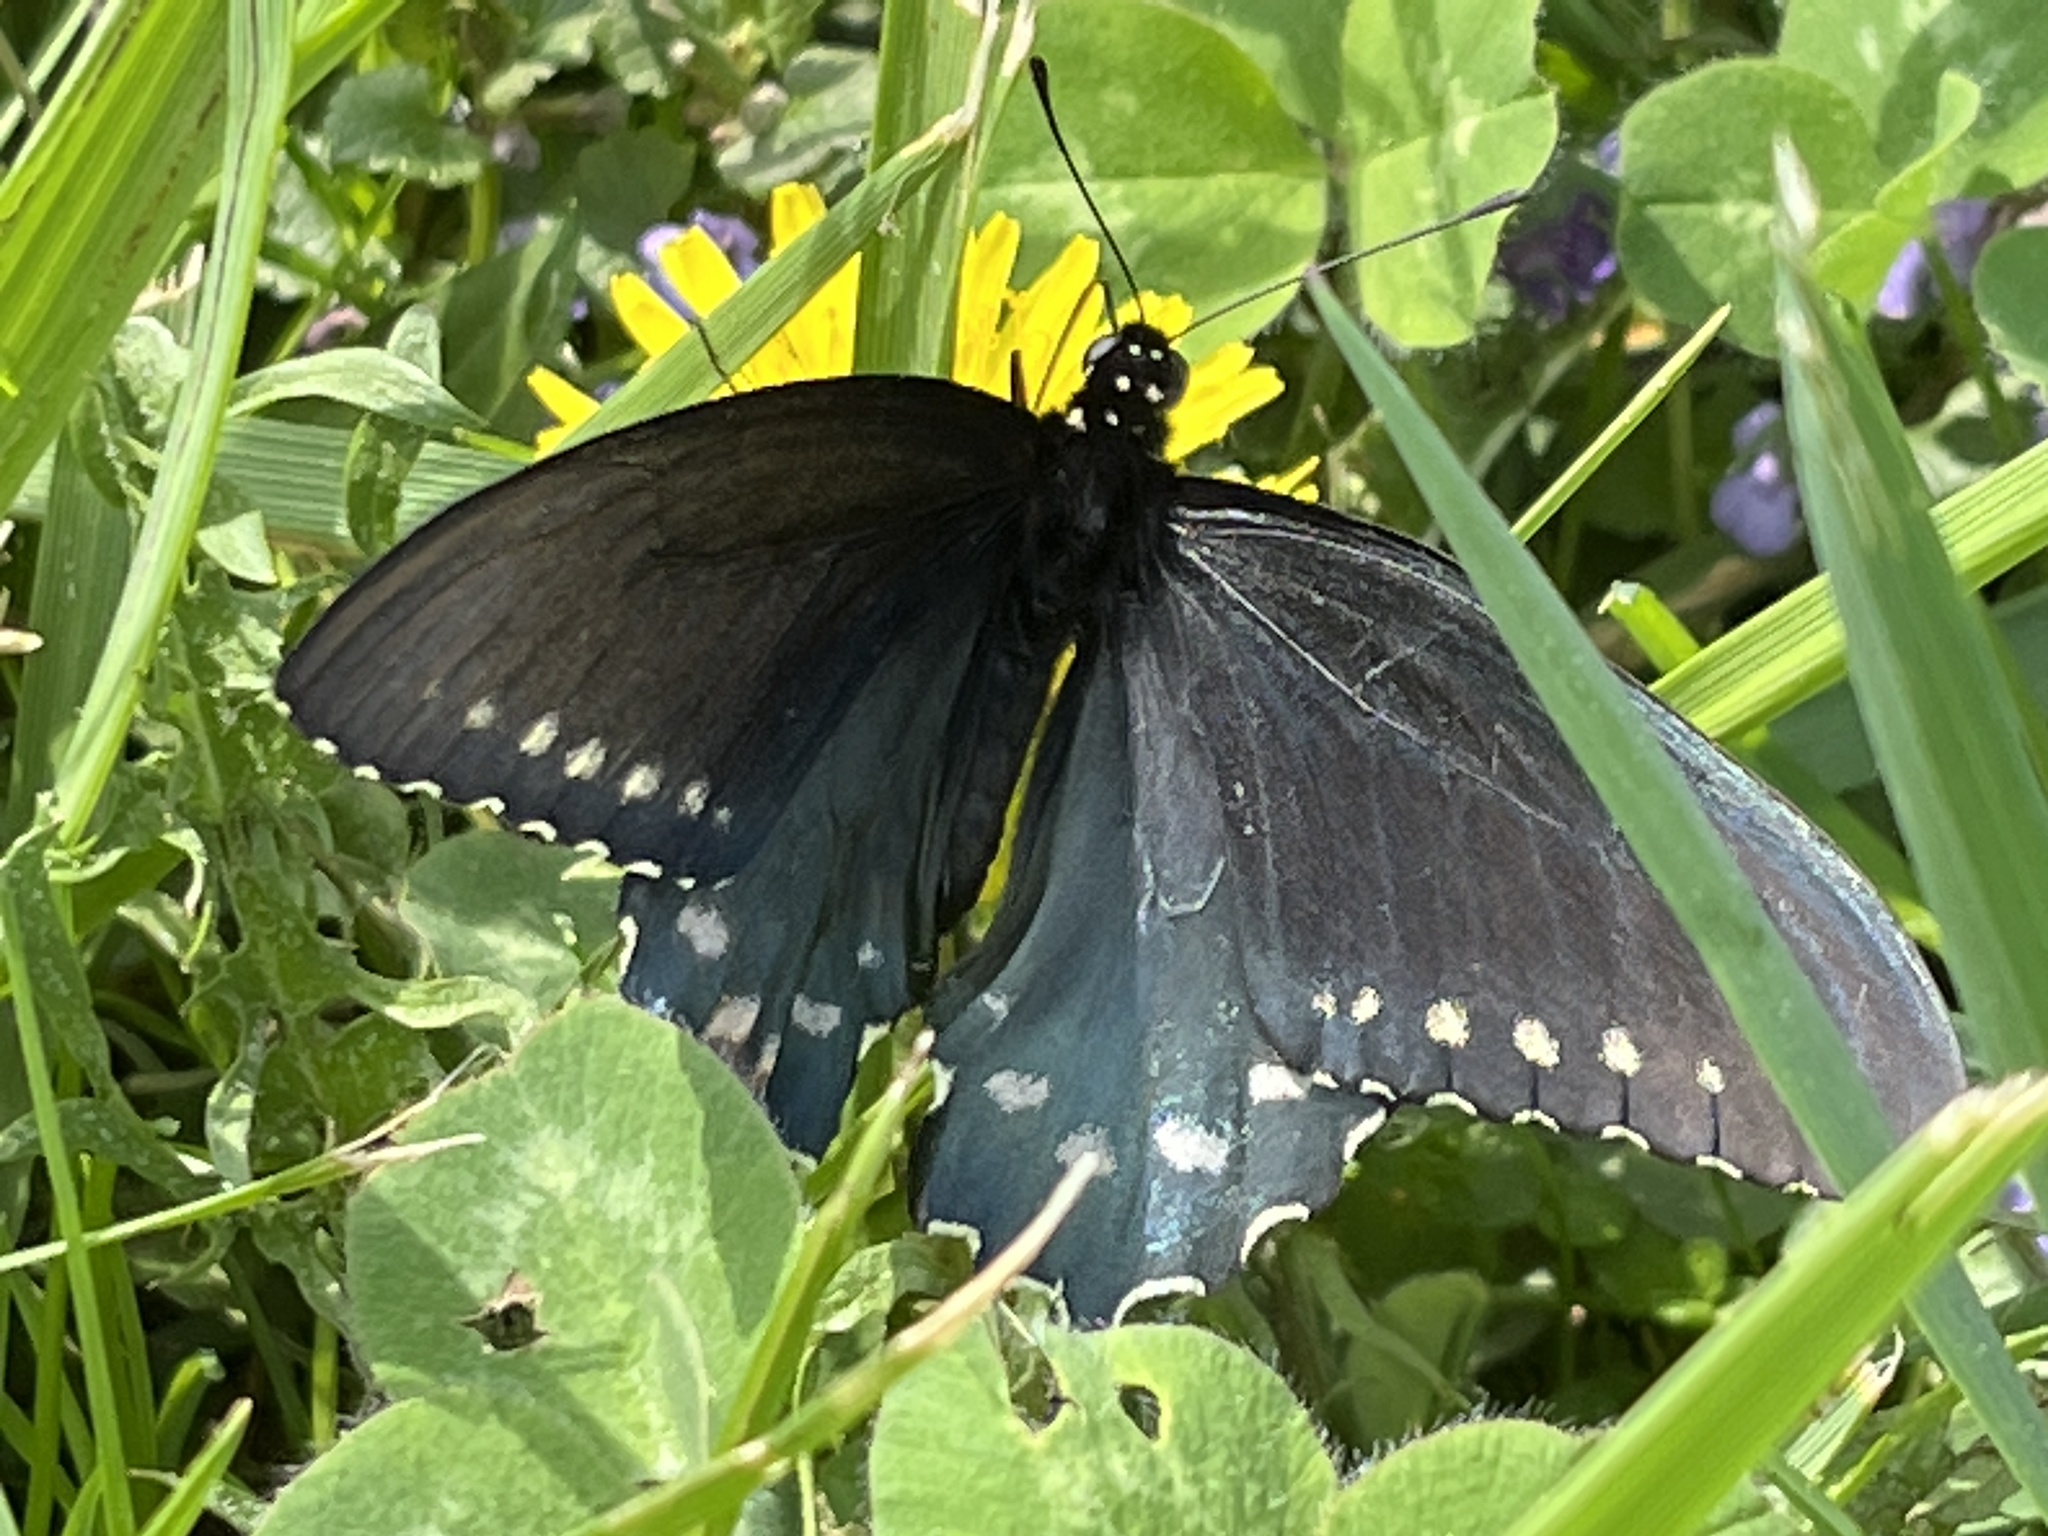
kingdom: Animalia
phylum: Arthropoda
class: Insecta
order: Lepidoptera
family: Papilionidae
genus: Battus
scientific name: Battus philenor
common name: Pipevine swallowtail
